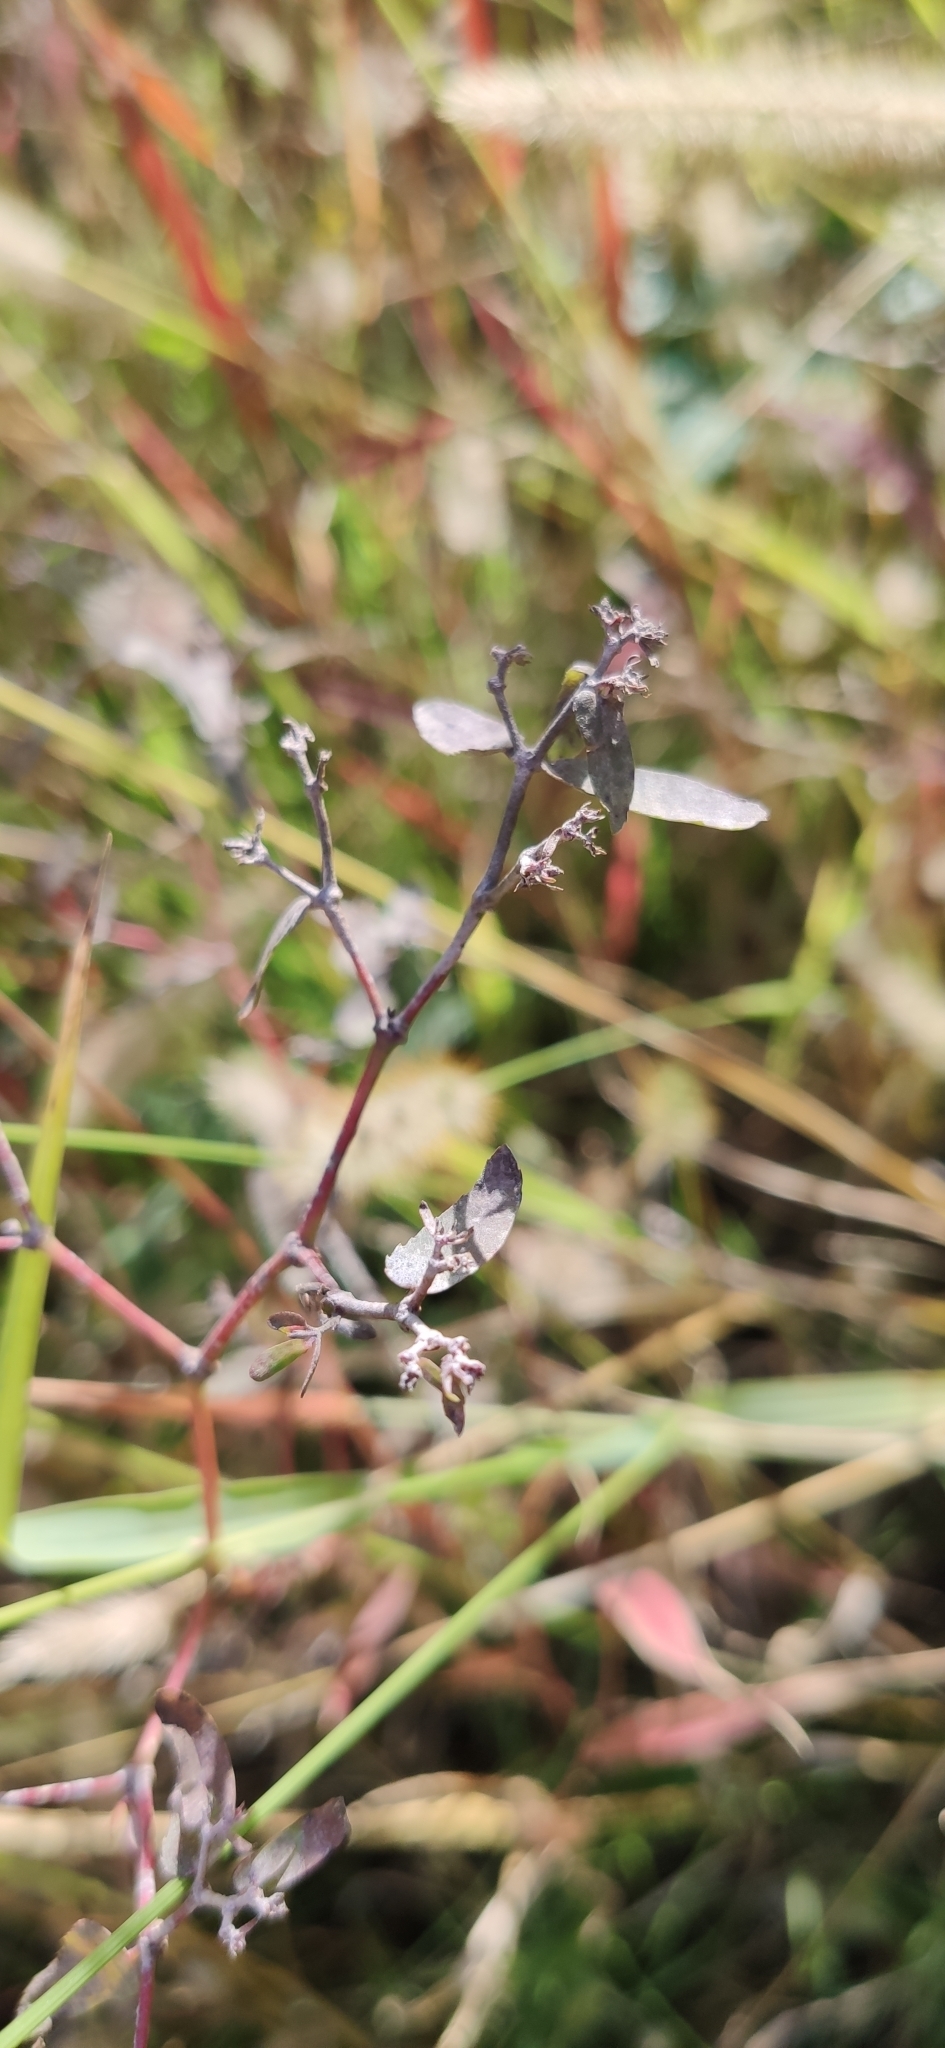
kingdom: Plantae
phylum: Tracheophyta
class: Magnoliopsida
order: Malpighiales
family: Euphorbiaceae
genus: Euphorbia
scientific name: Euphorbia nutans
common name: Eyebane
